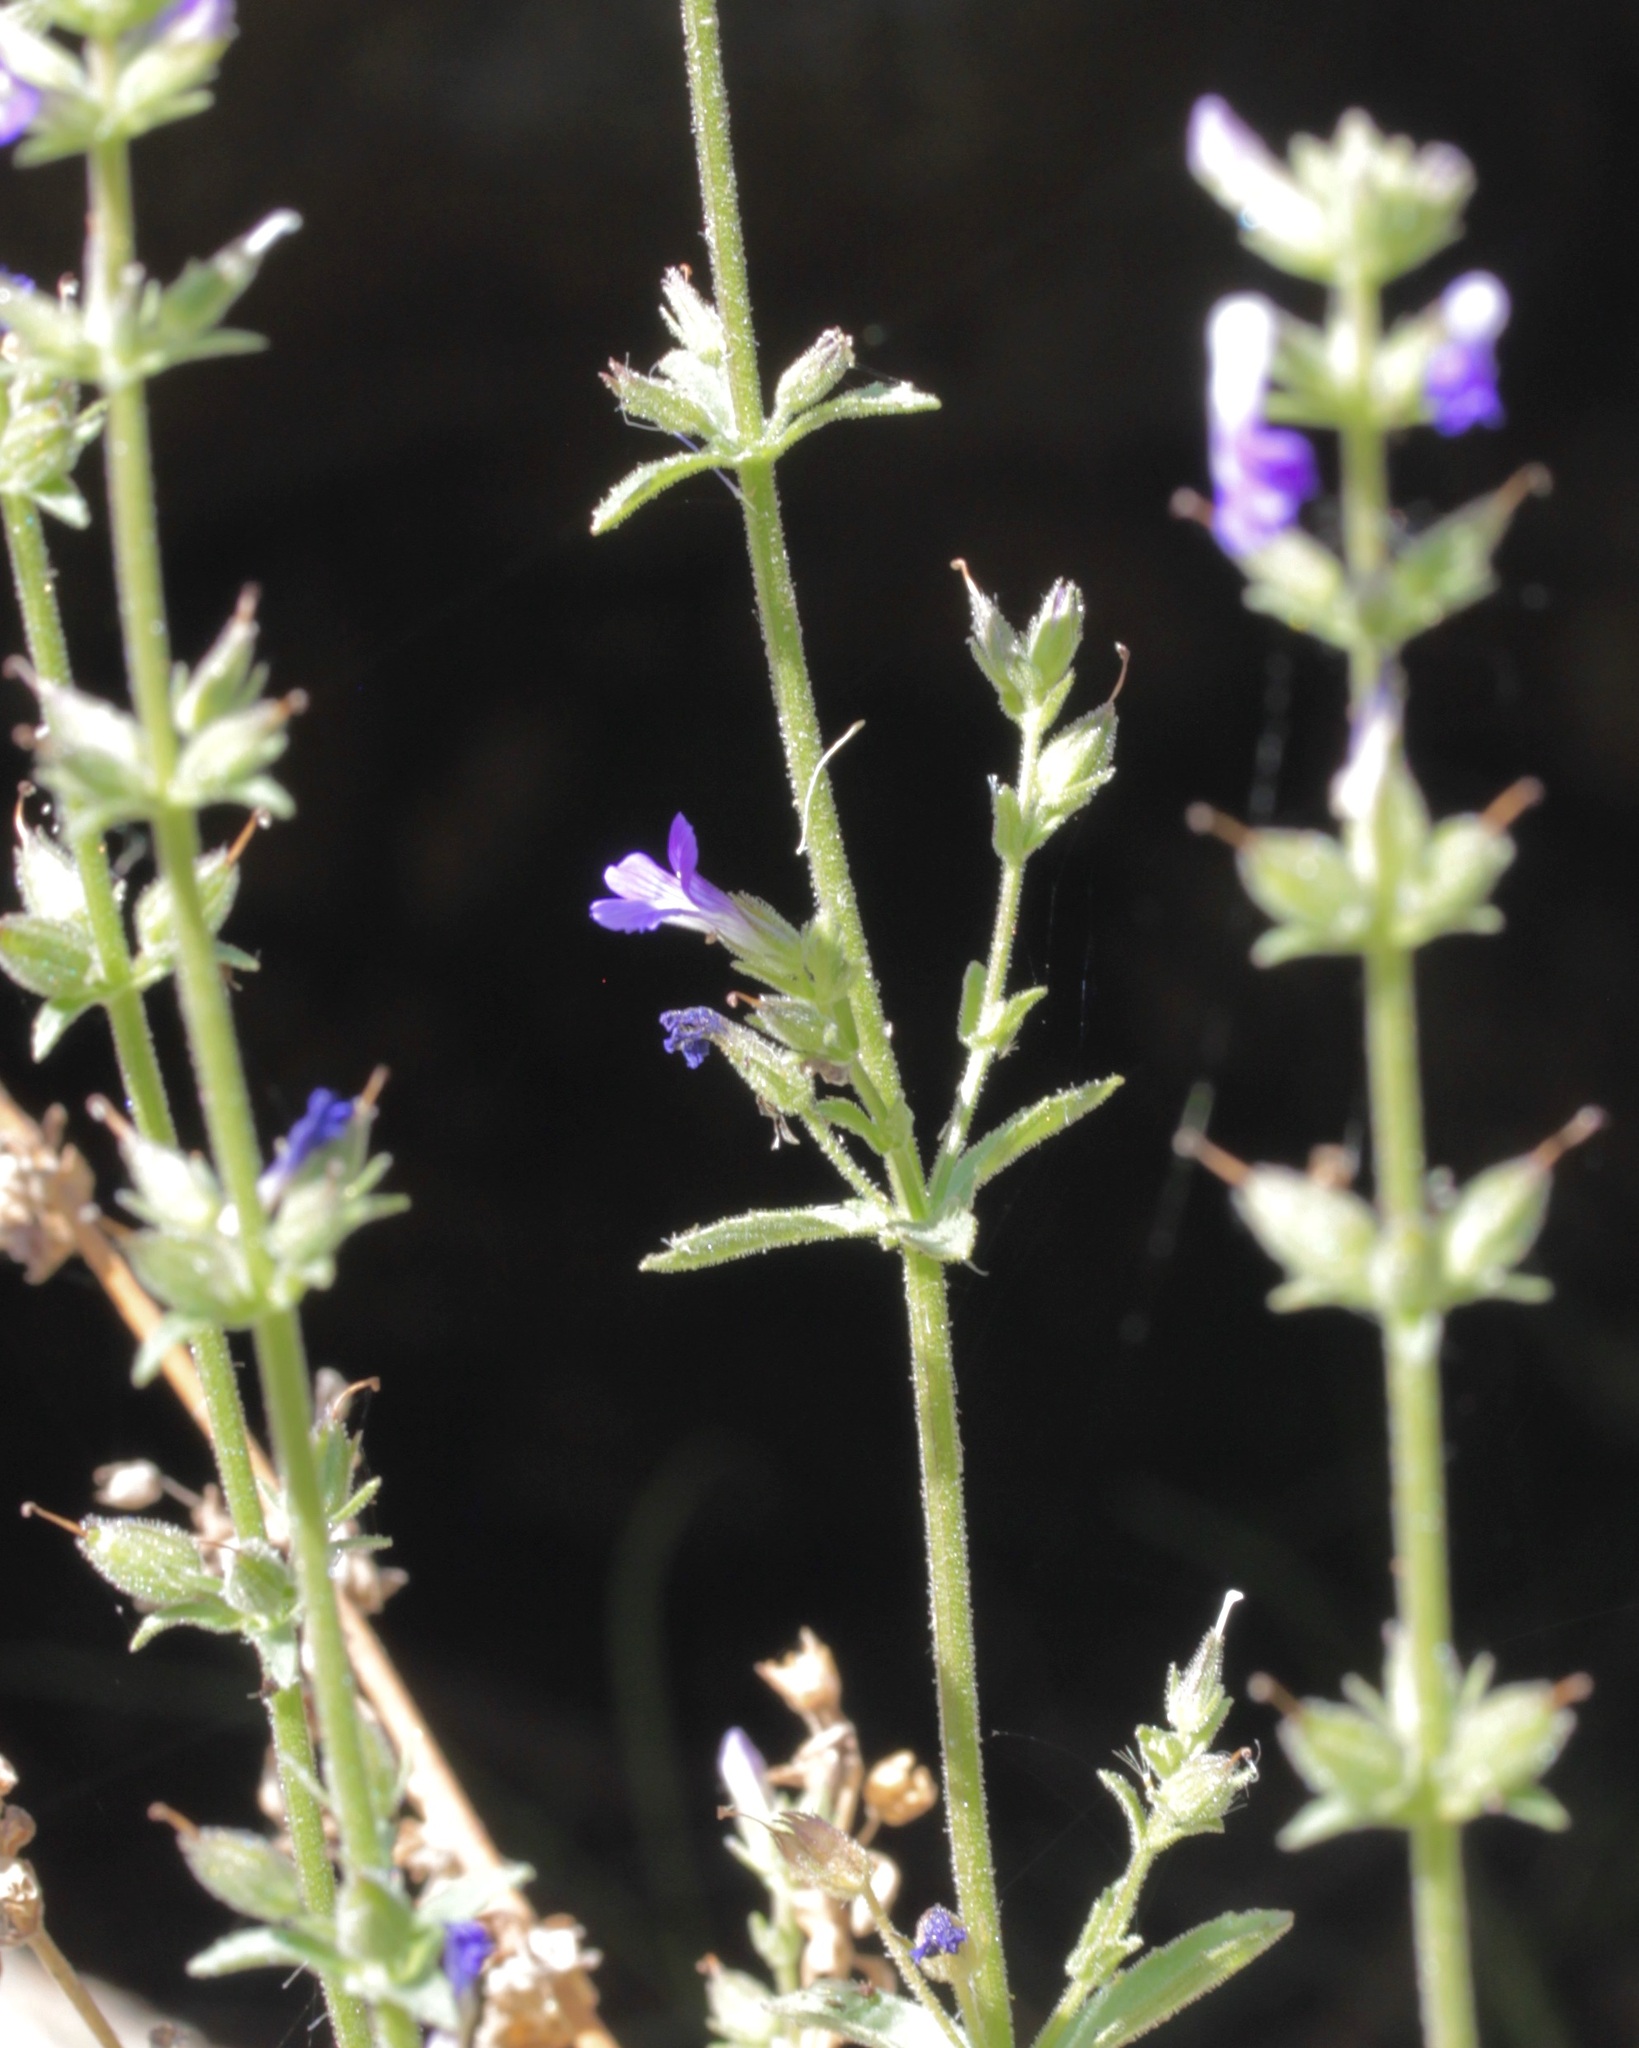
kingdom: Plantae
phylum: Tracheophyta
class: Magnoliopsida
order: Lamiales
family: Plantaginaceae
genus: Stemodia
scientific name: Stemodia durantifolia
